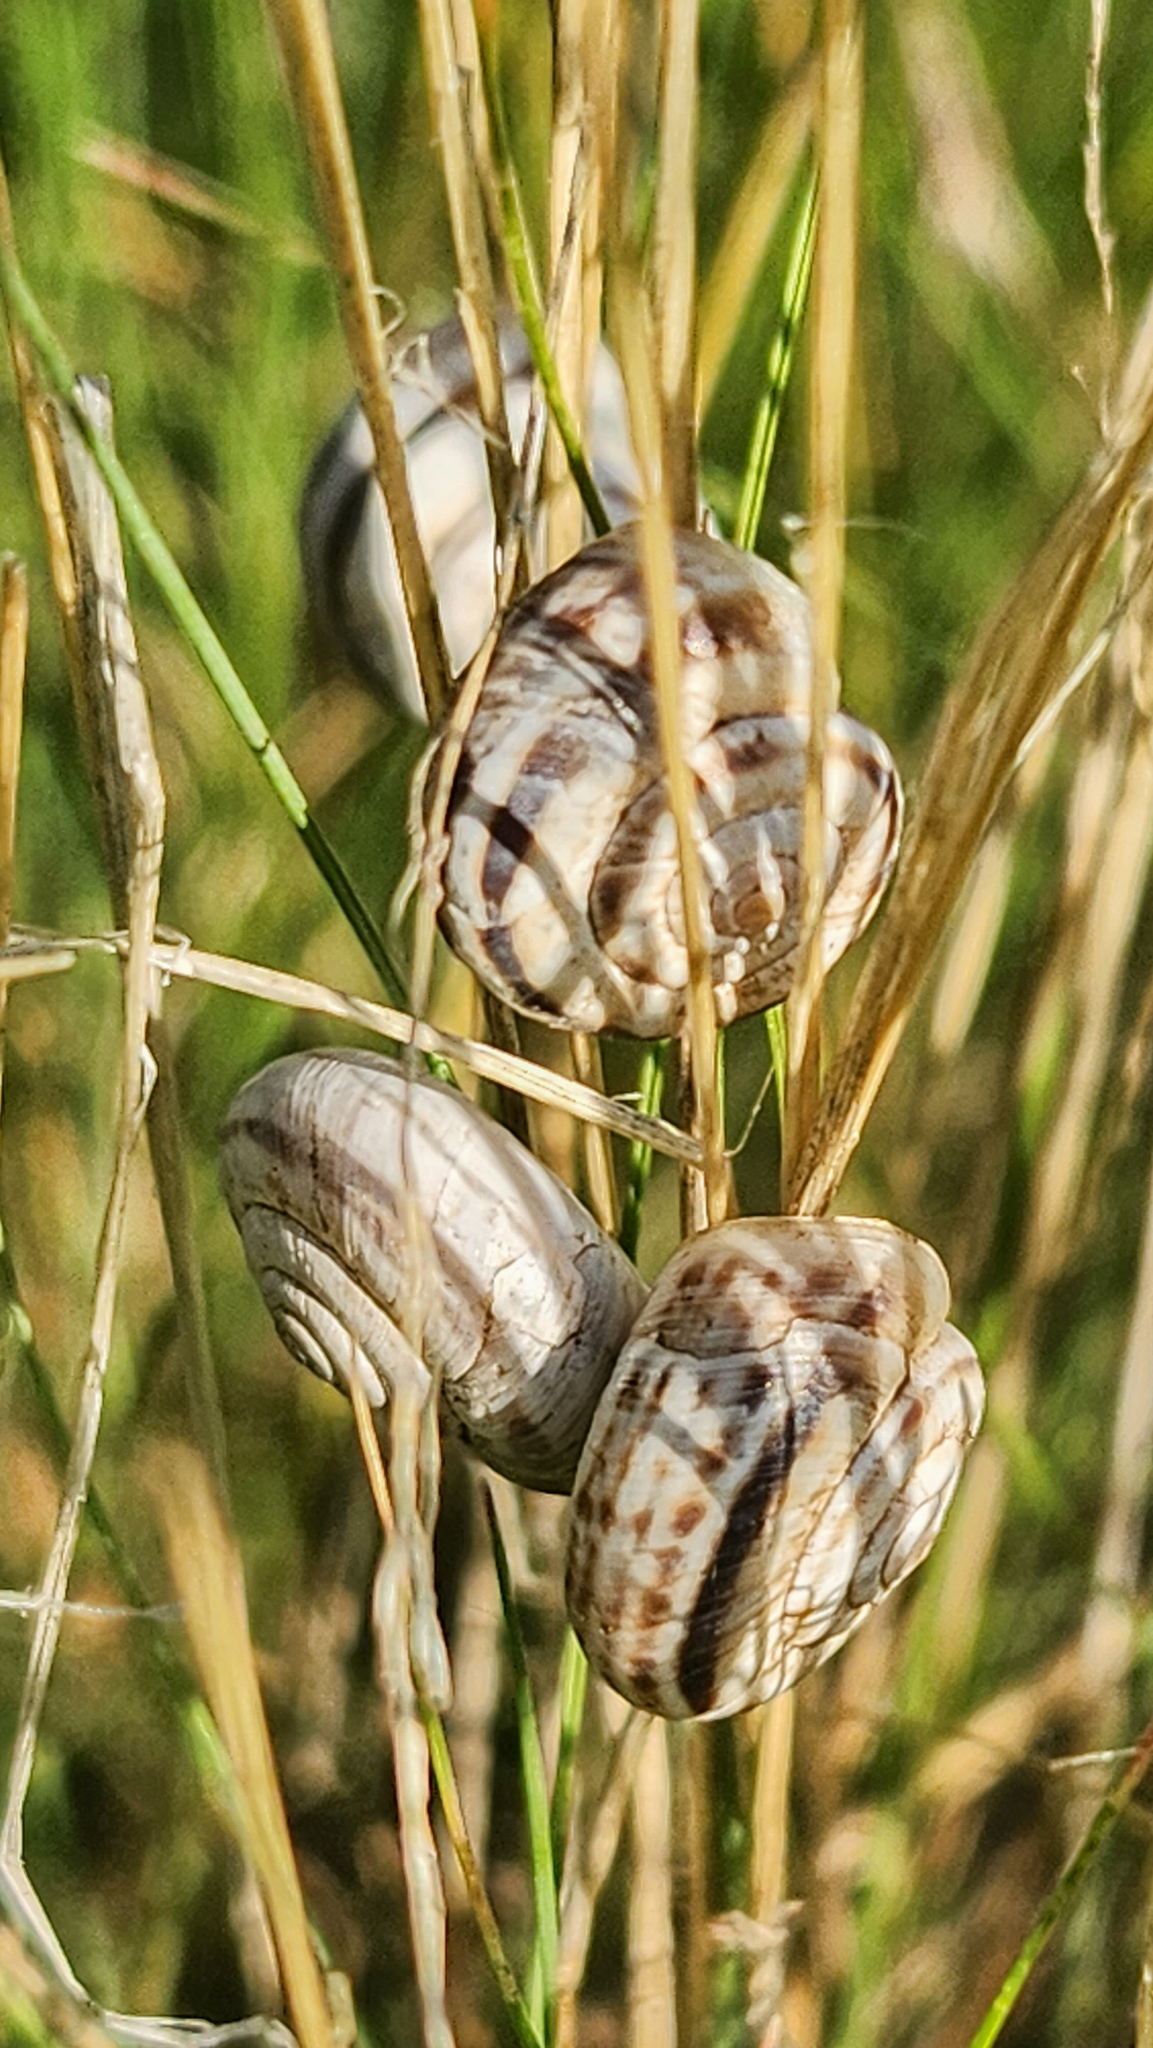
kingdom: Animalia
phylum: Mollusca
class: Gastropoda
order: Stylommatophora
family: Geomitridae
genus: Xerolenta
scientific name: Xerolenta obvia
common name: White heath snail
